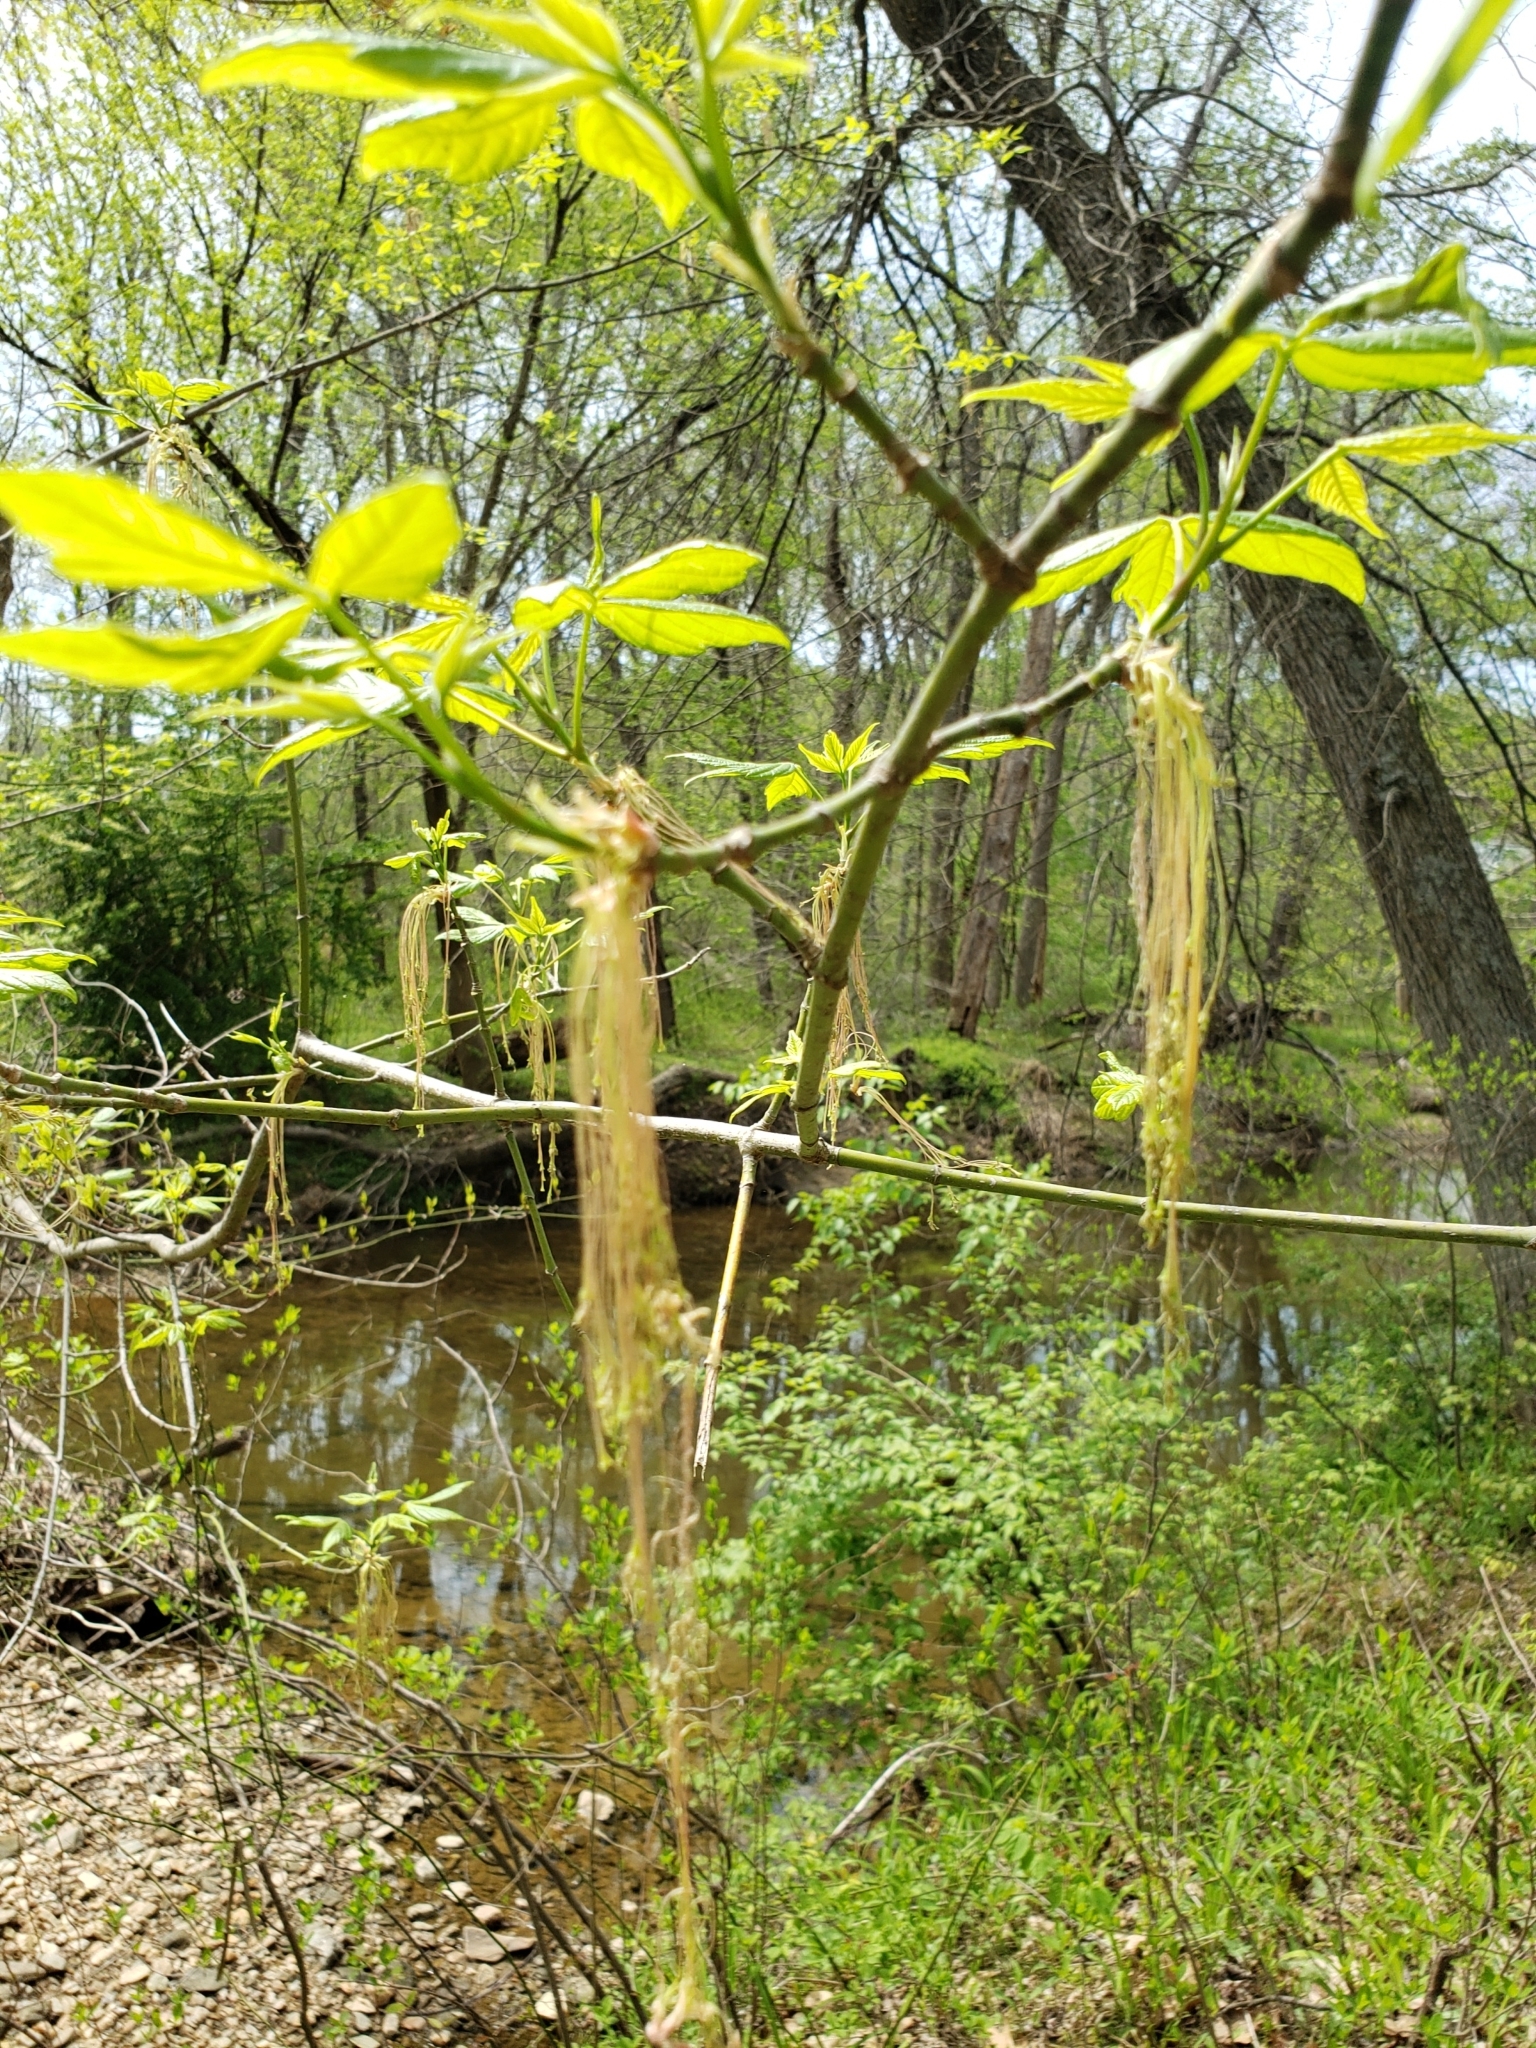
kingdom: Plantae
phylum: Tracheophyta
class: Magnoliopsida
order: Sapindales
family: Sapindaceae
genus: Acer
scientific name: Acer negundo
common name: Ashleaf maple
